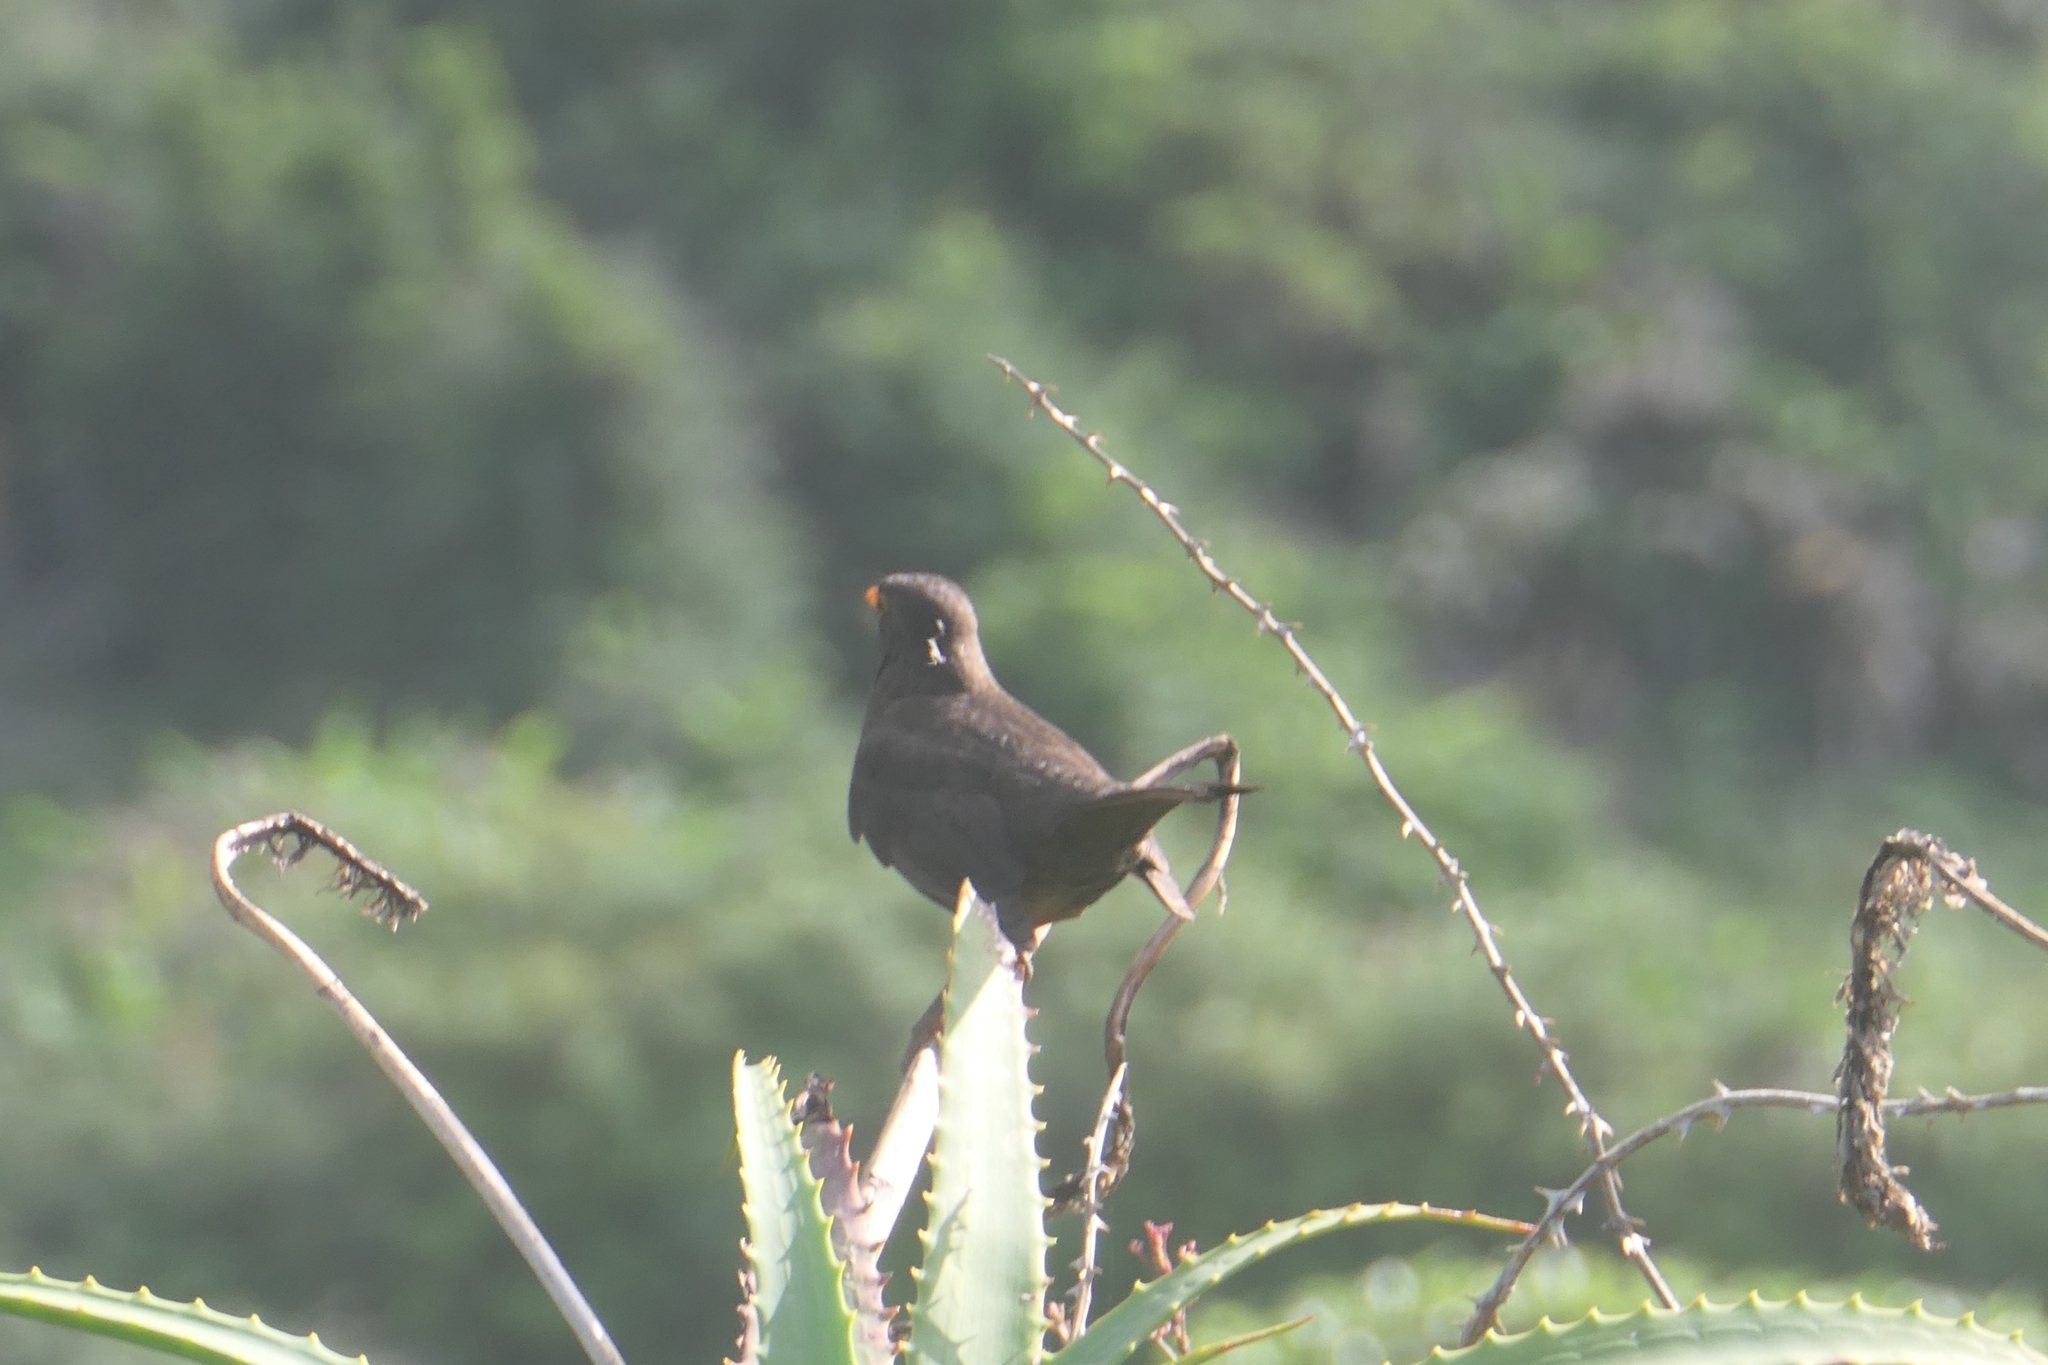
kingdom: Animalia
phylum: Chordata
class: Aves
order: Passeriformes
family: Turdidae
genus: Turdus
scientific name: Turdus merula
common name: Common blackbird
